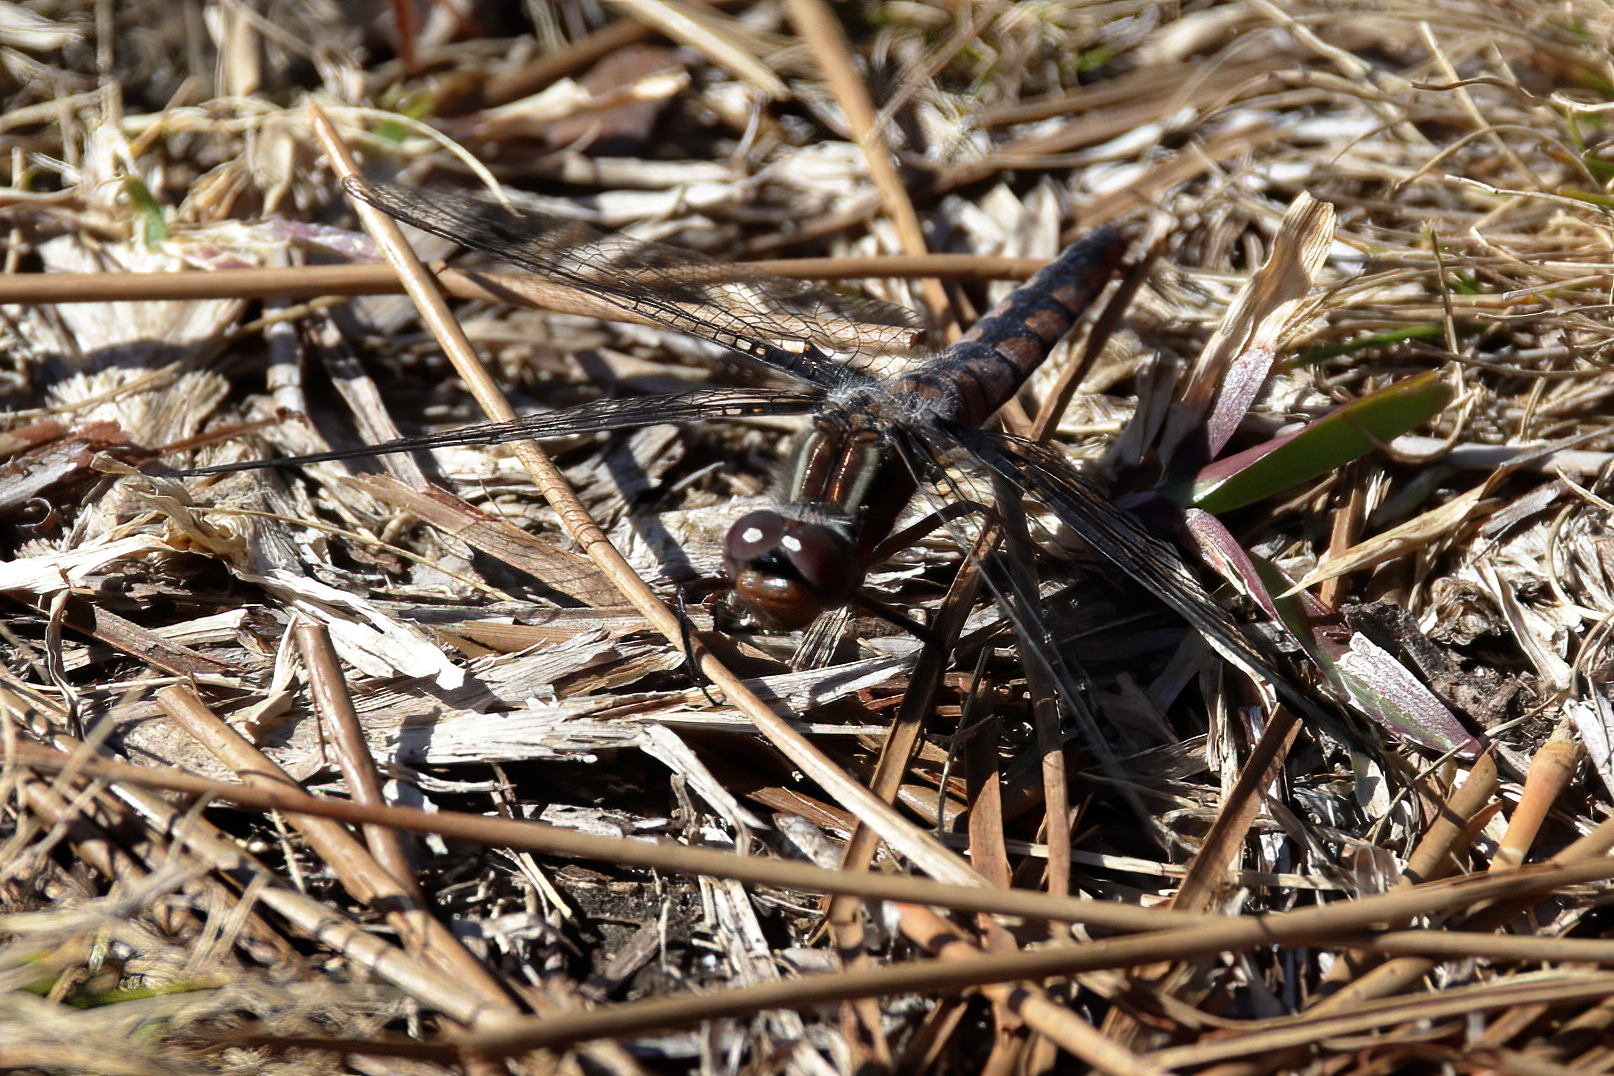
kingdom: Animalia
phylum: Arthropoda
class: Insecta
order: Odonata
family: Libellulidae
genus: Ladona
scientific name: Ladona deplanata
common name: Blue corporal
